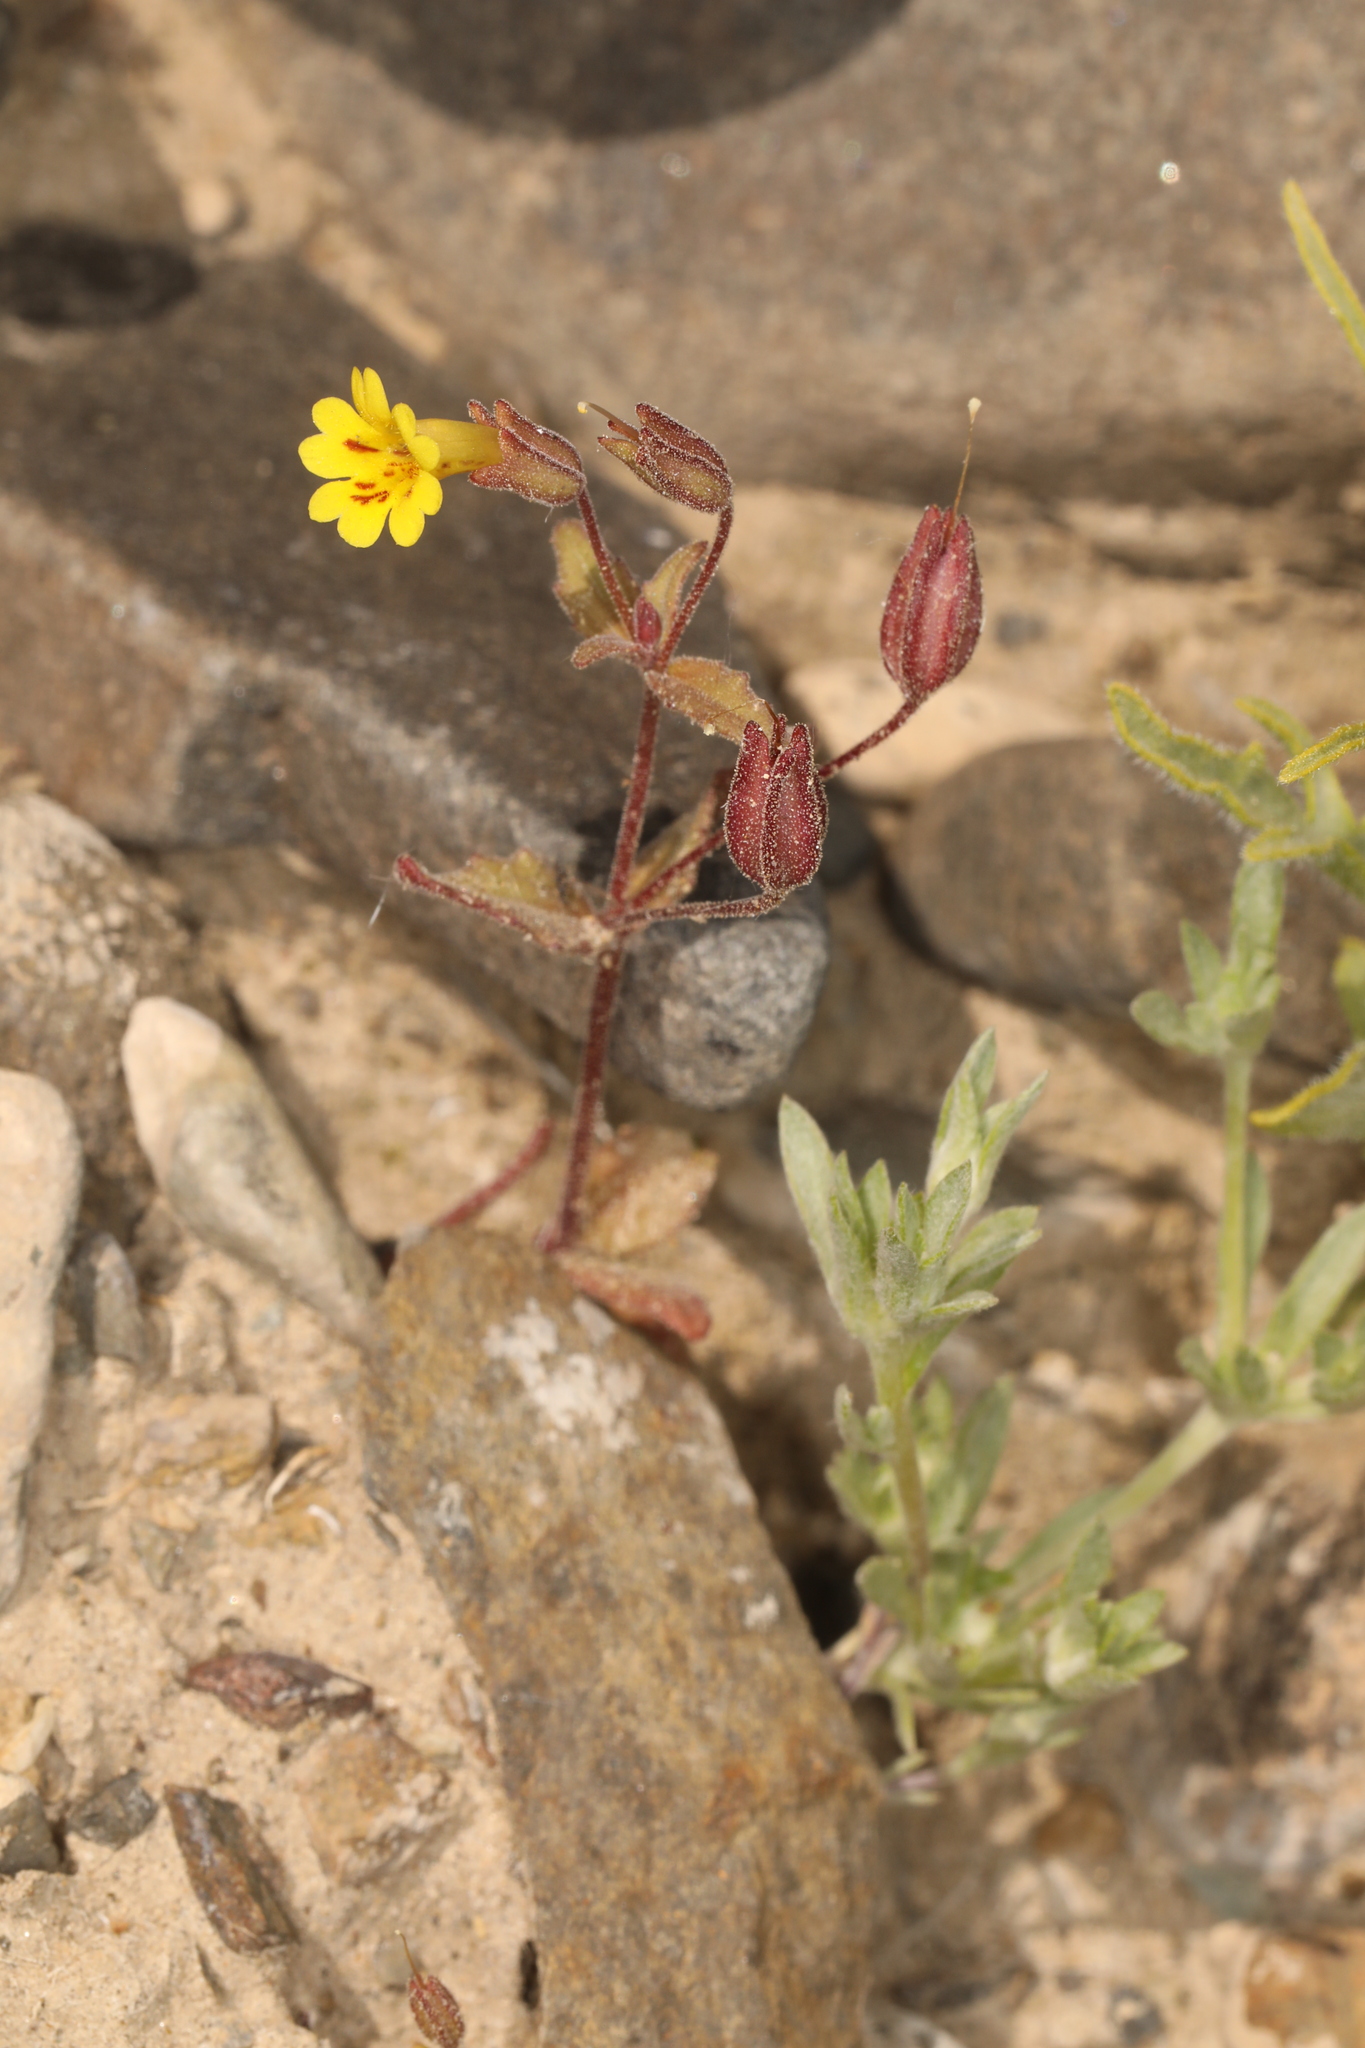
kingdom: Plantae
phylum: Tracheophyta
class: Magnoliopsida
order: Lamiales
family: Phrymaceae
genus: Erythranthe
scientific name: Erythranthe calcicola
